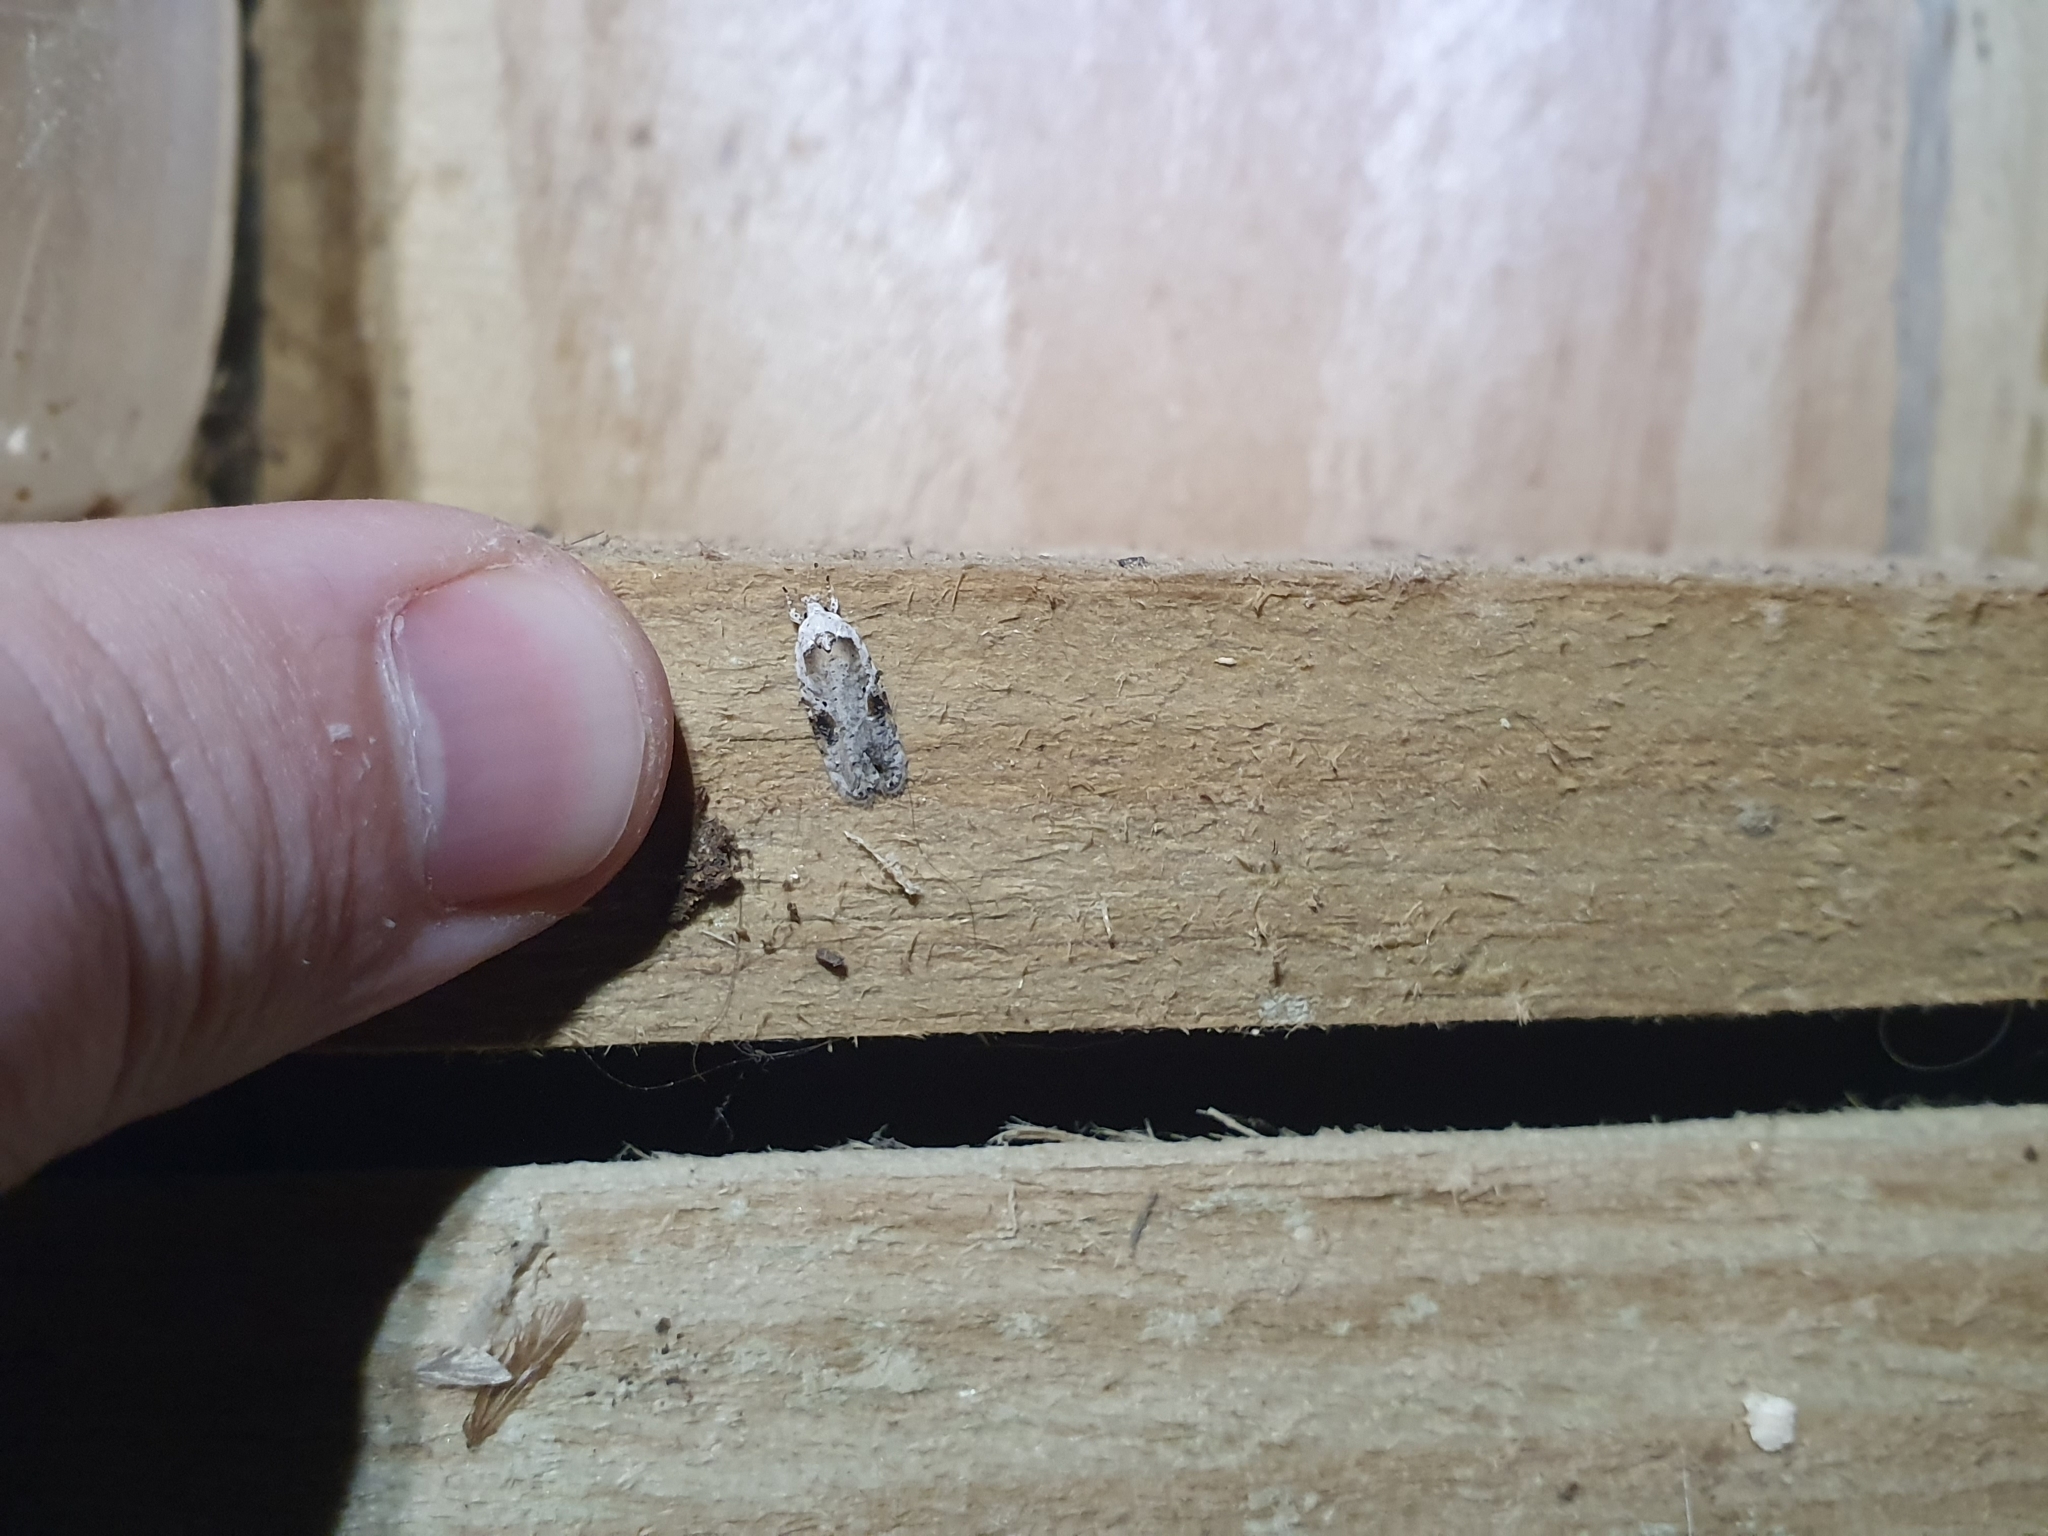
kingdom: Animalia
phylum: Arthropoda
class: Insecta
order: Lepidoptera
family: Depressariidae
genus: Agonopterix
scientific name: Agonopterix alstroemeriana
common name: Moth
